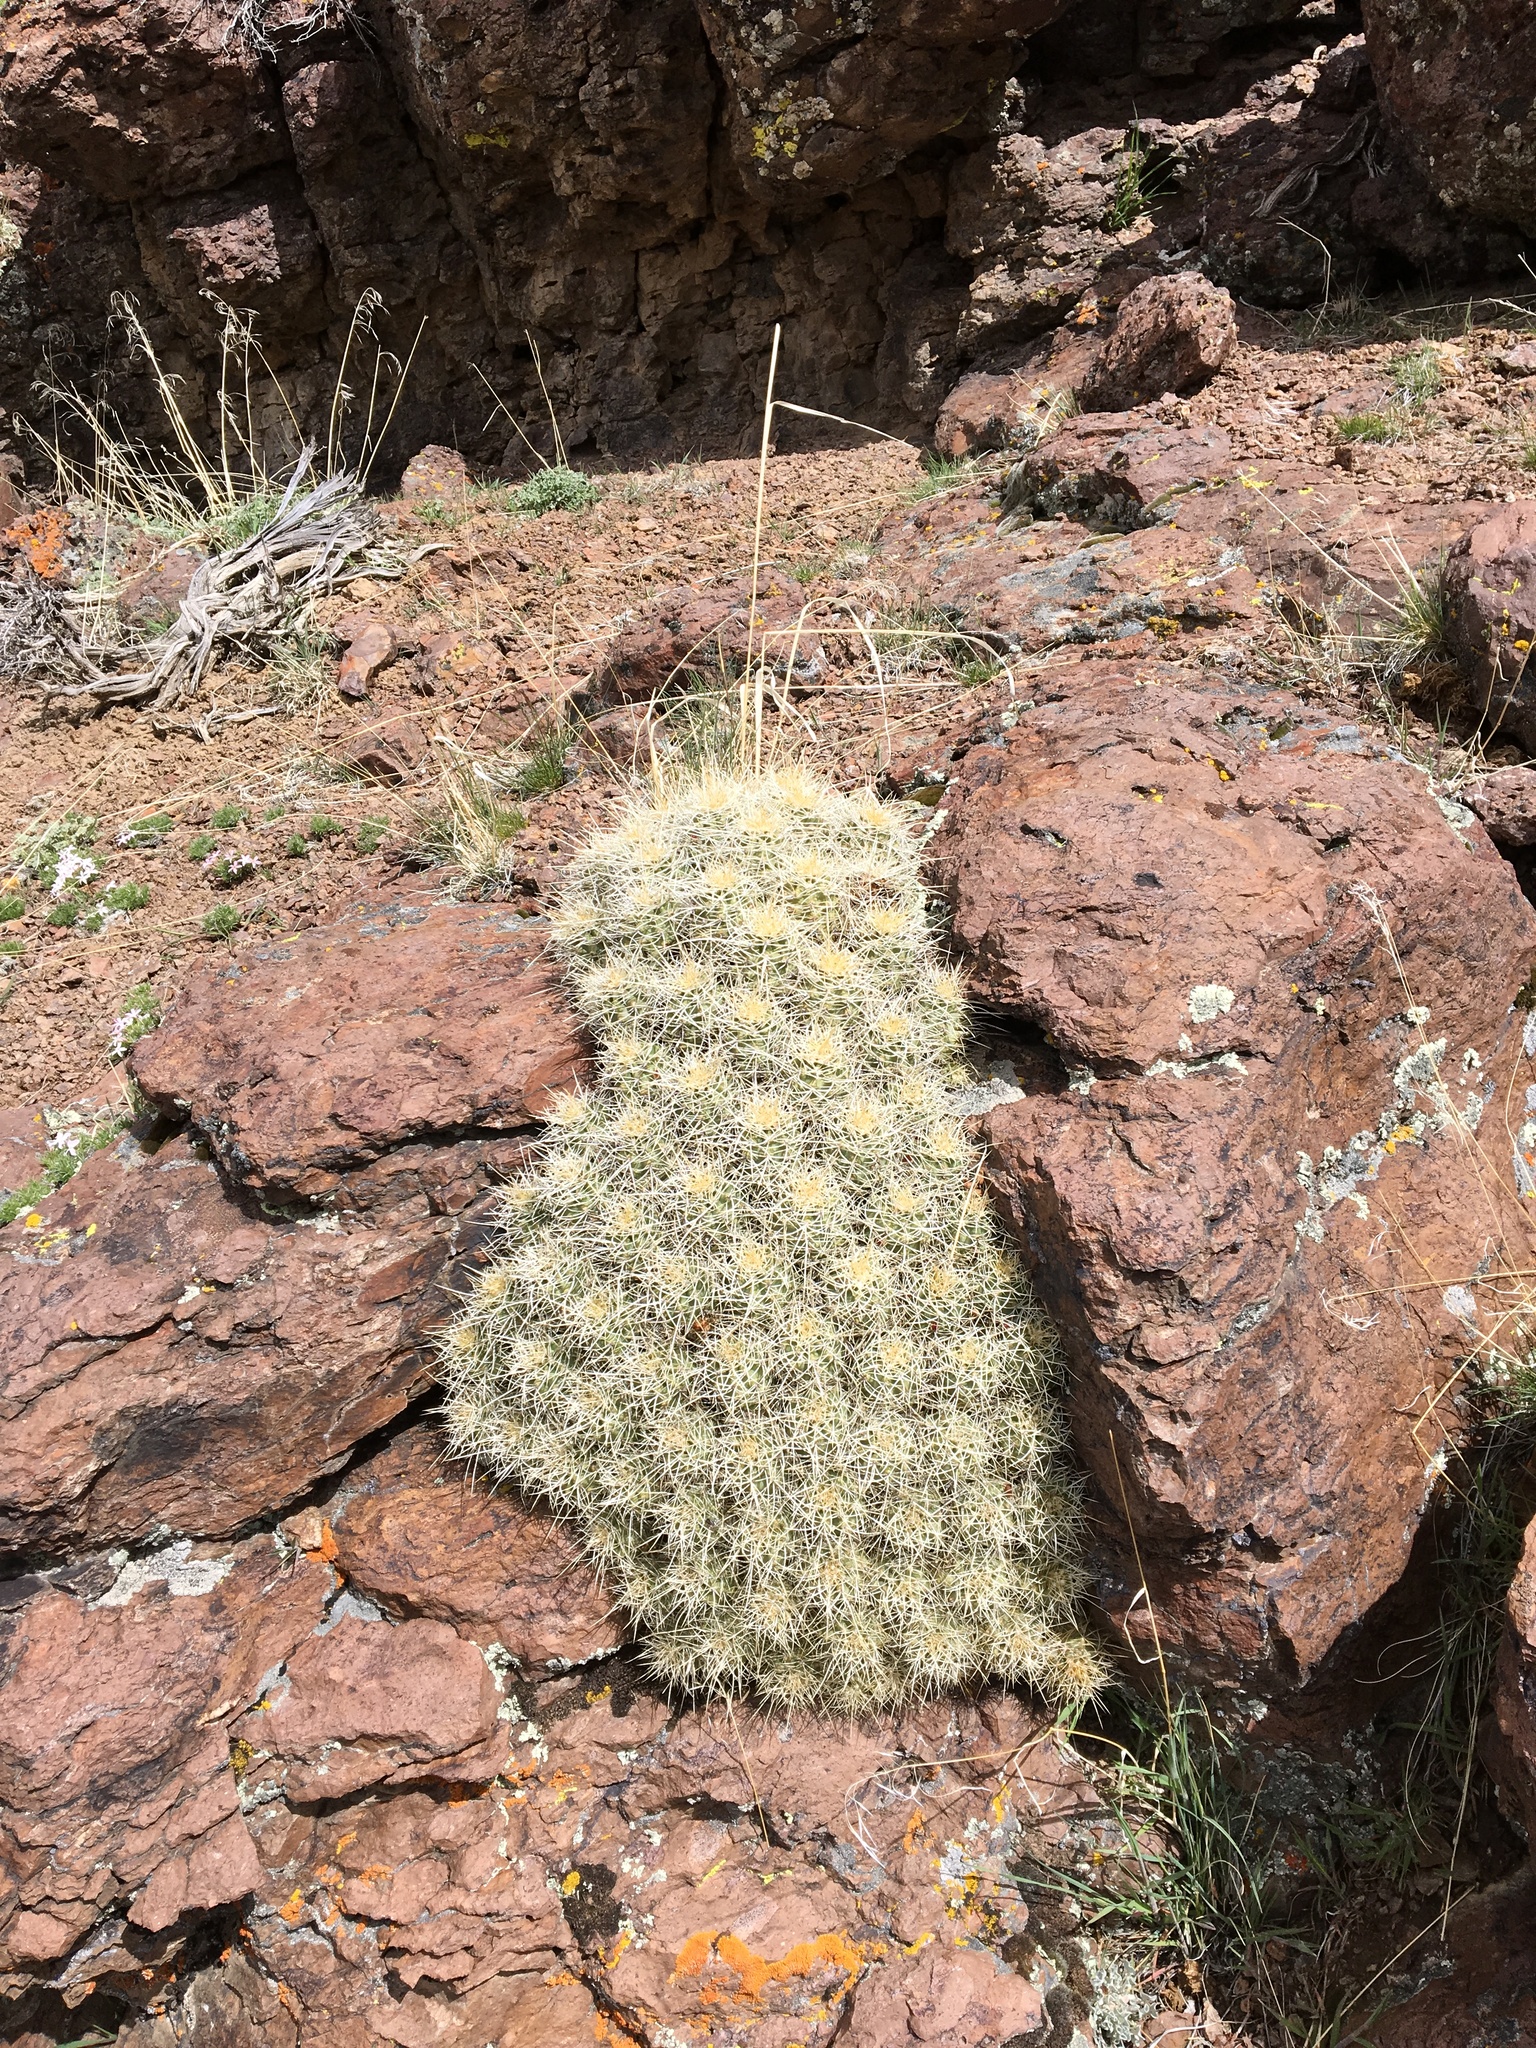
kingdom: Plantae
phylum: Tracheophyta
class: Magnoliopsida
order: Caryophyllales
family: Cactaceae
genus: Echinocereus
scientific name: Echinocereus triglochidiatus
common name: Claretcup hedgehog
